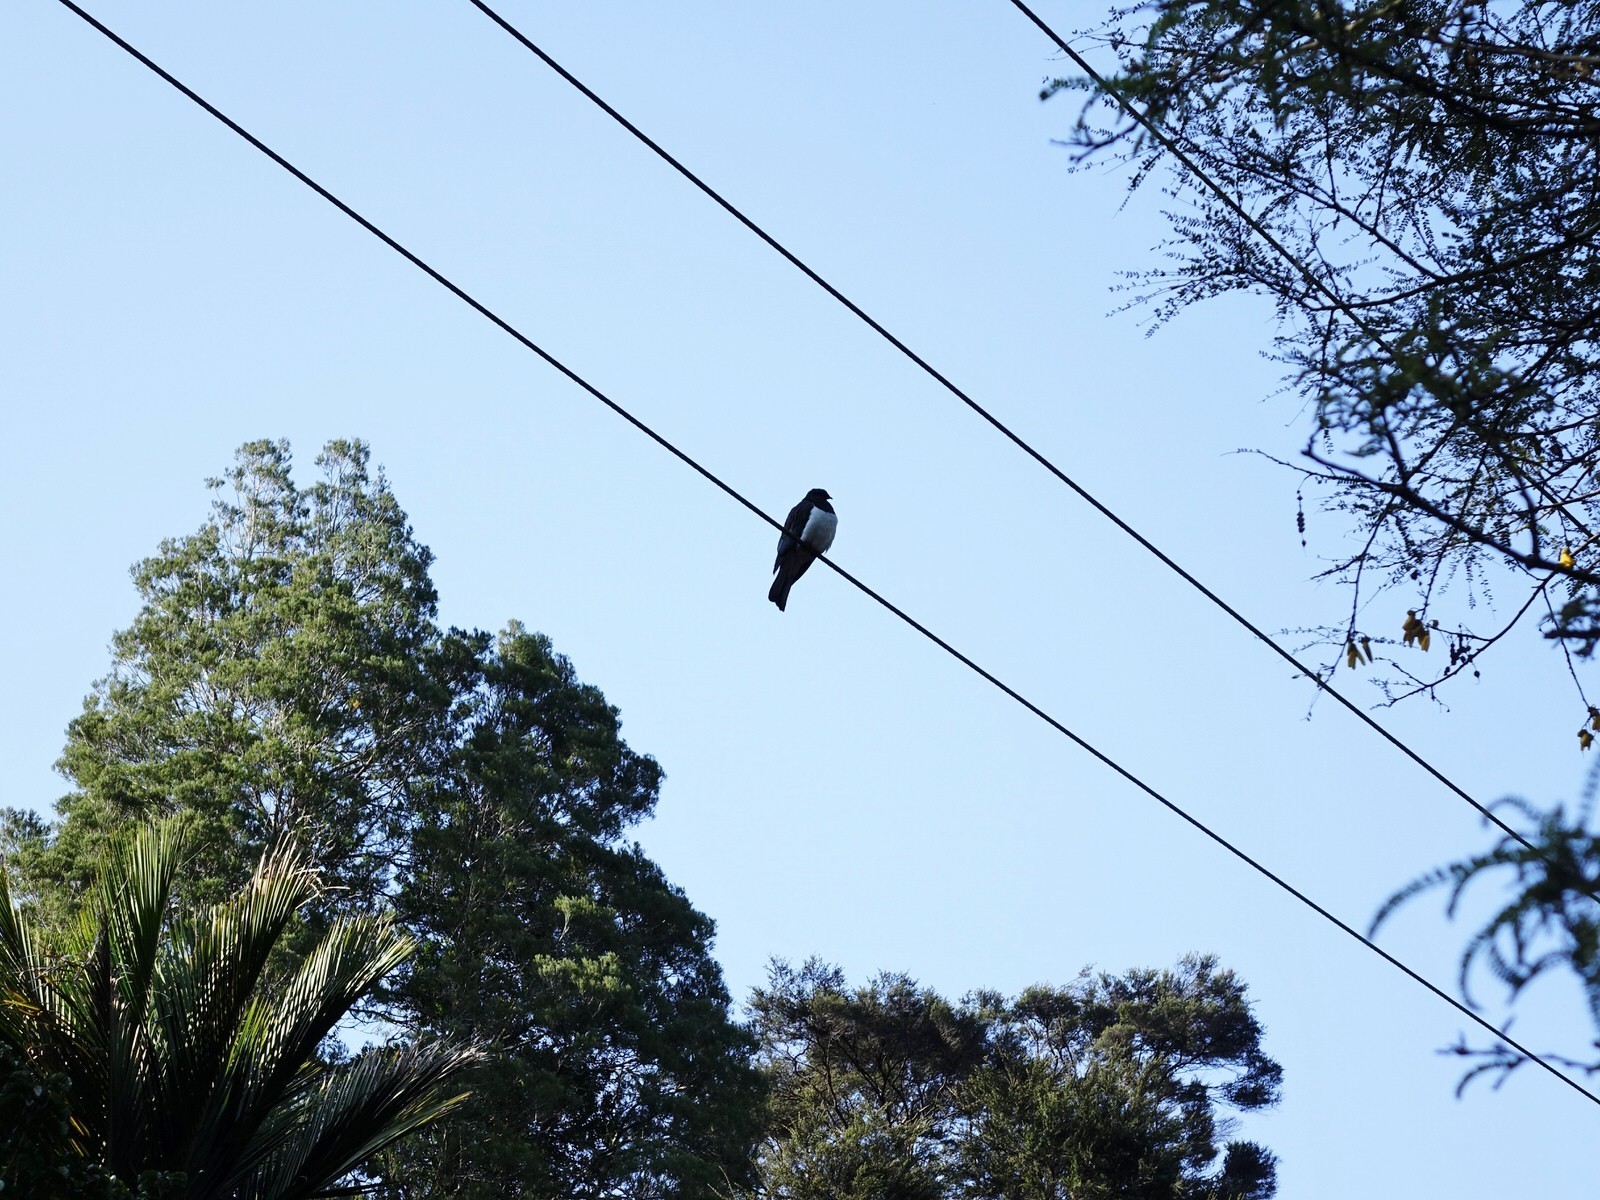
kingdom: Animalia
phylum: Chordata
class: Aves
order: Columbiformes
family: Columbidae
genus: Hemiphaga
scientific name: Hemiphaga novaeseelandiae
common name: New zealand pigeon
